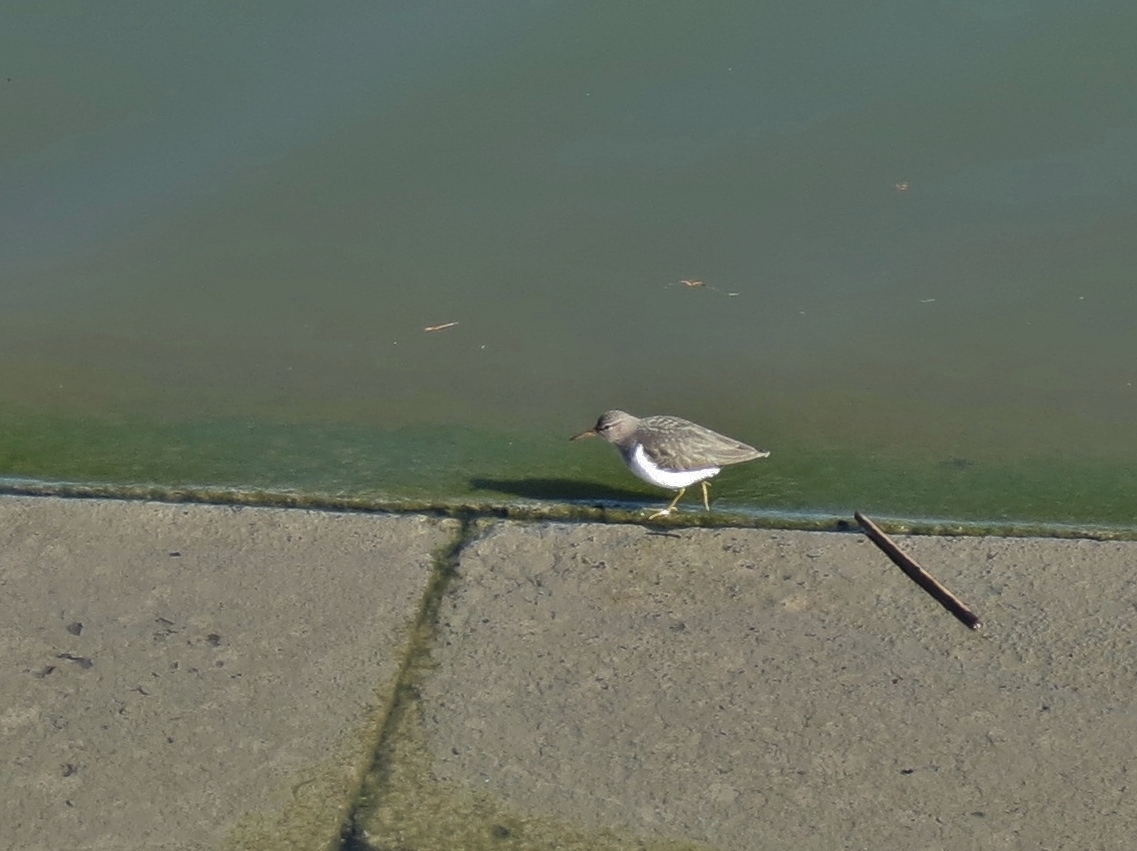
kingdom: Animalia
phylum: Chordata
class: Aves
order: Charadriiformes
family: Scolopacidae
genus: Actitis
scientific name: Actitis macularius
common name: Spotted sandpiper
